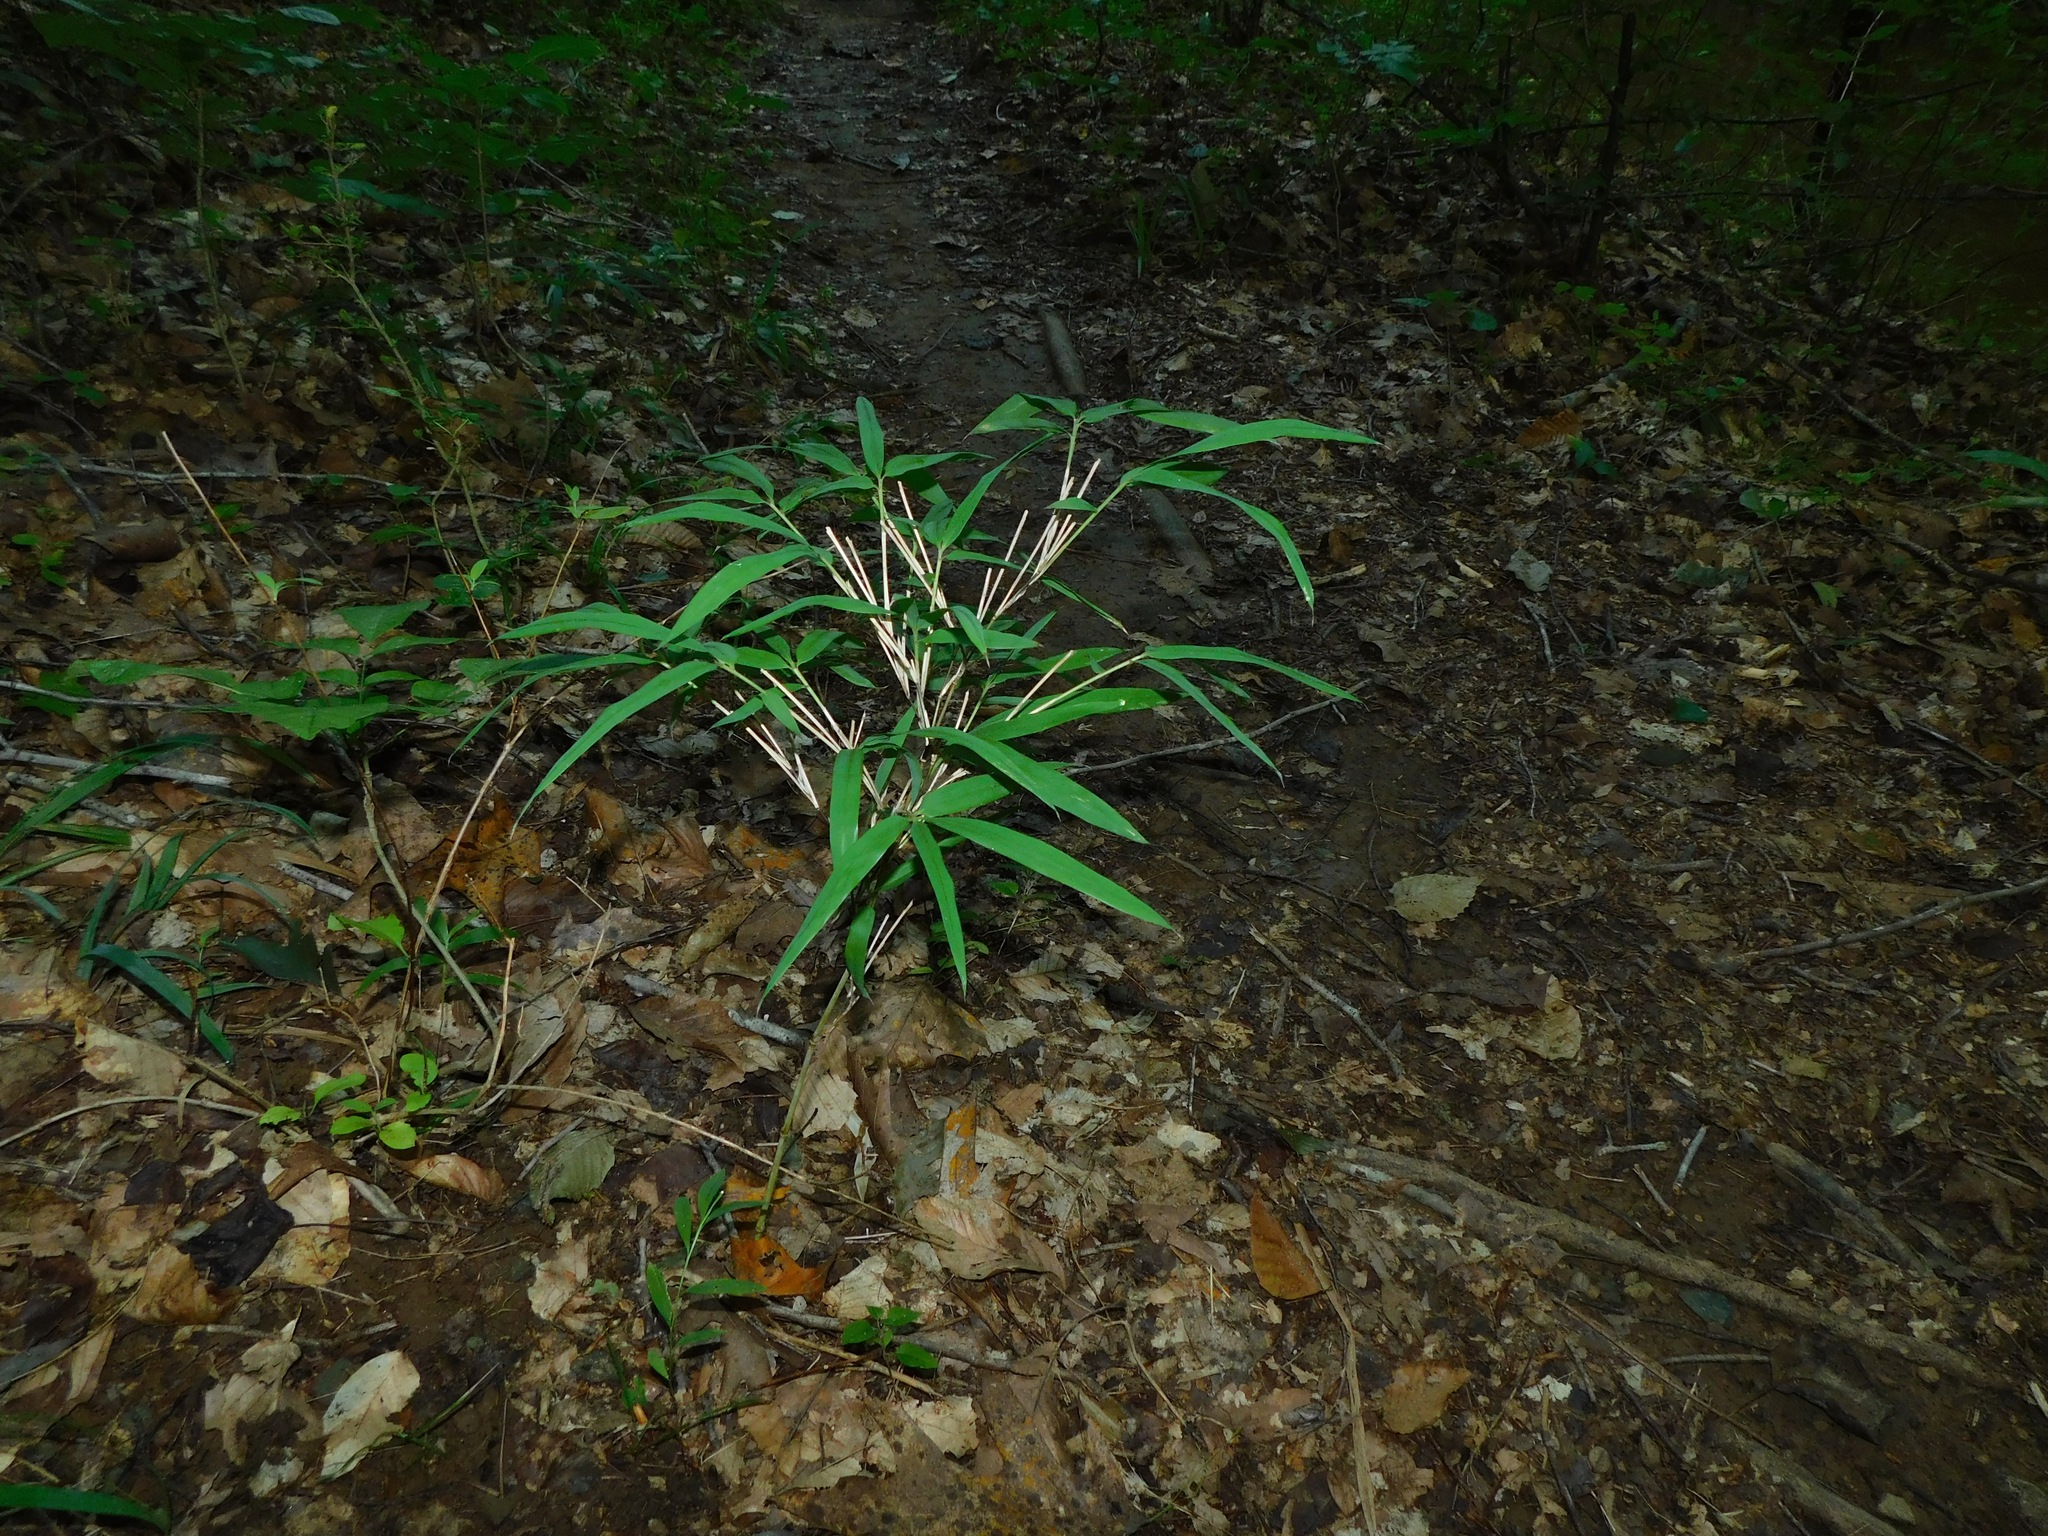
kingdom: Plantae
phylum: Tracheophyta
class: Liliopsida
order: Poales
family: Poaceae
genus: Arundinaria
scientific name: Arundinaria appalachiana
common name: Hill cane
